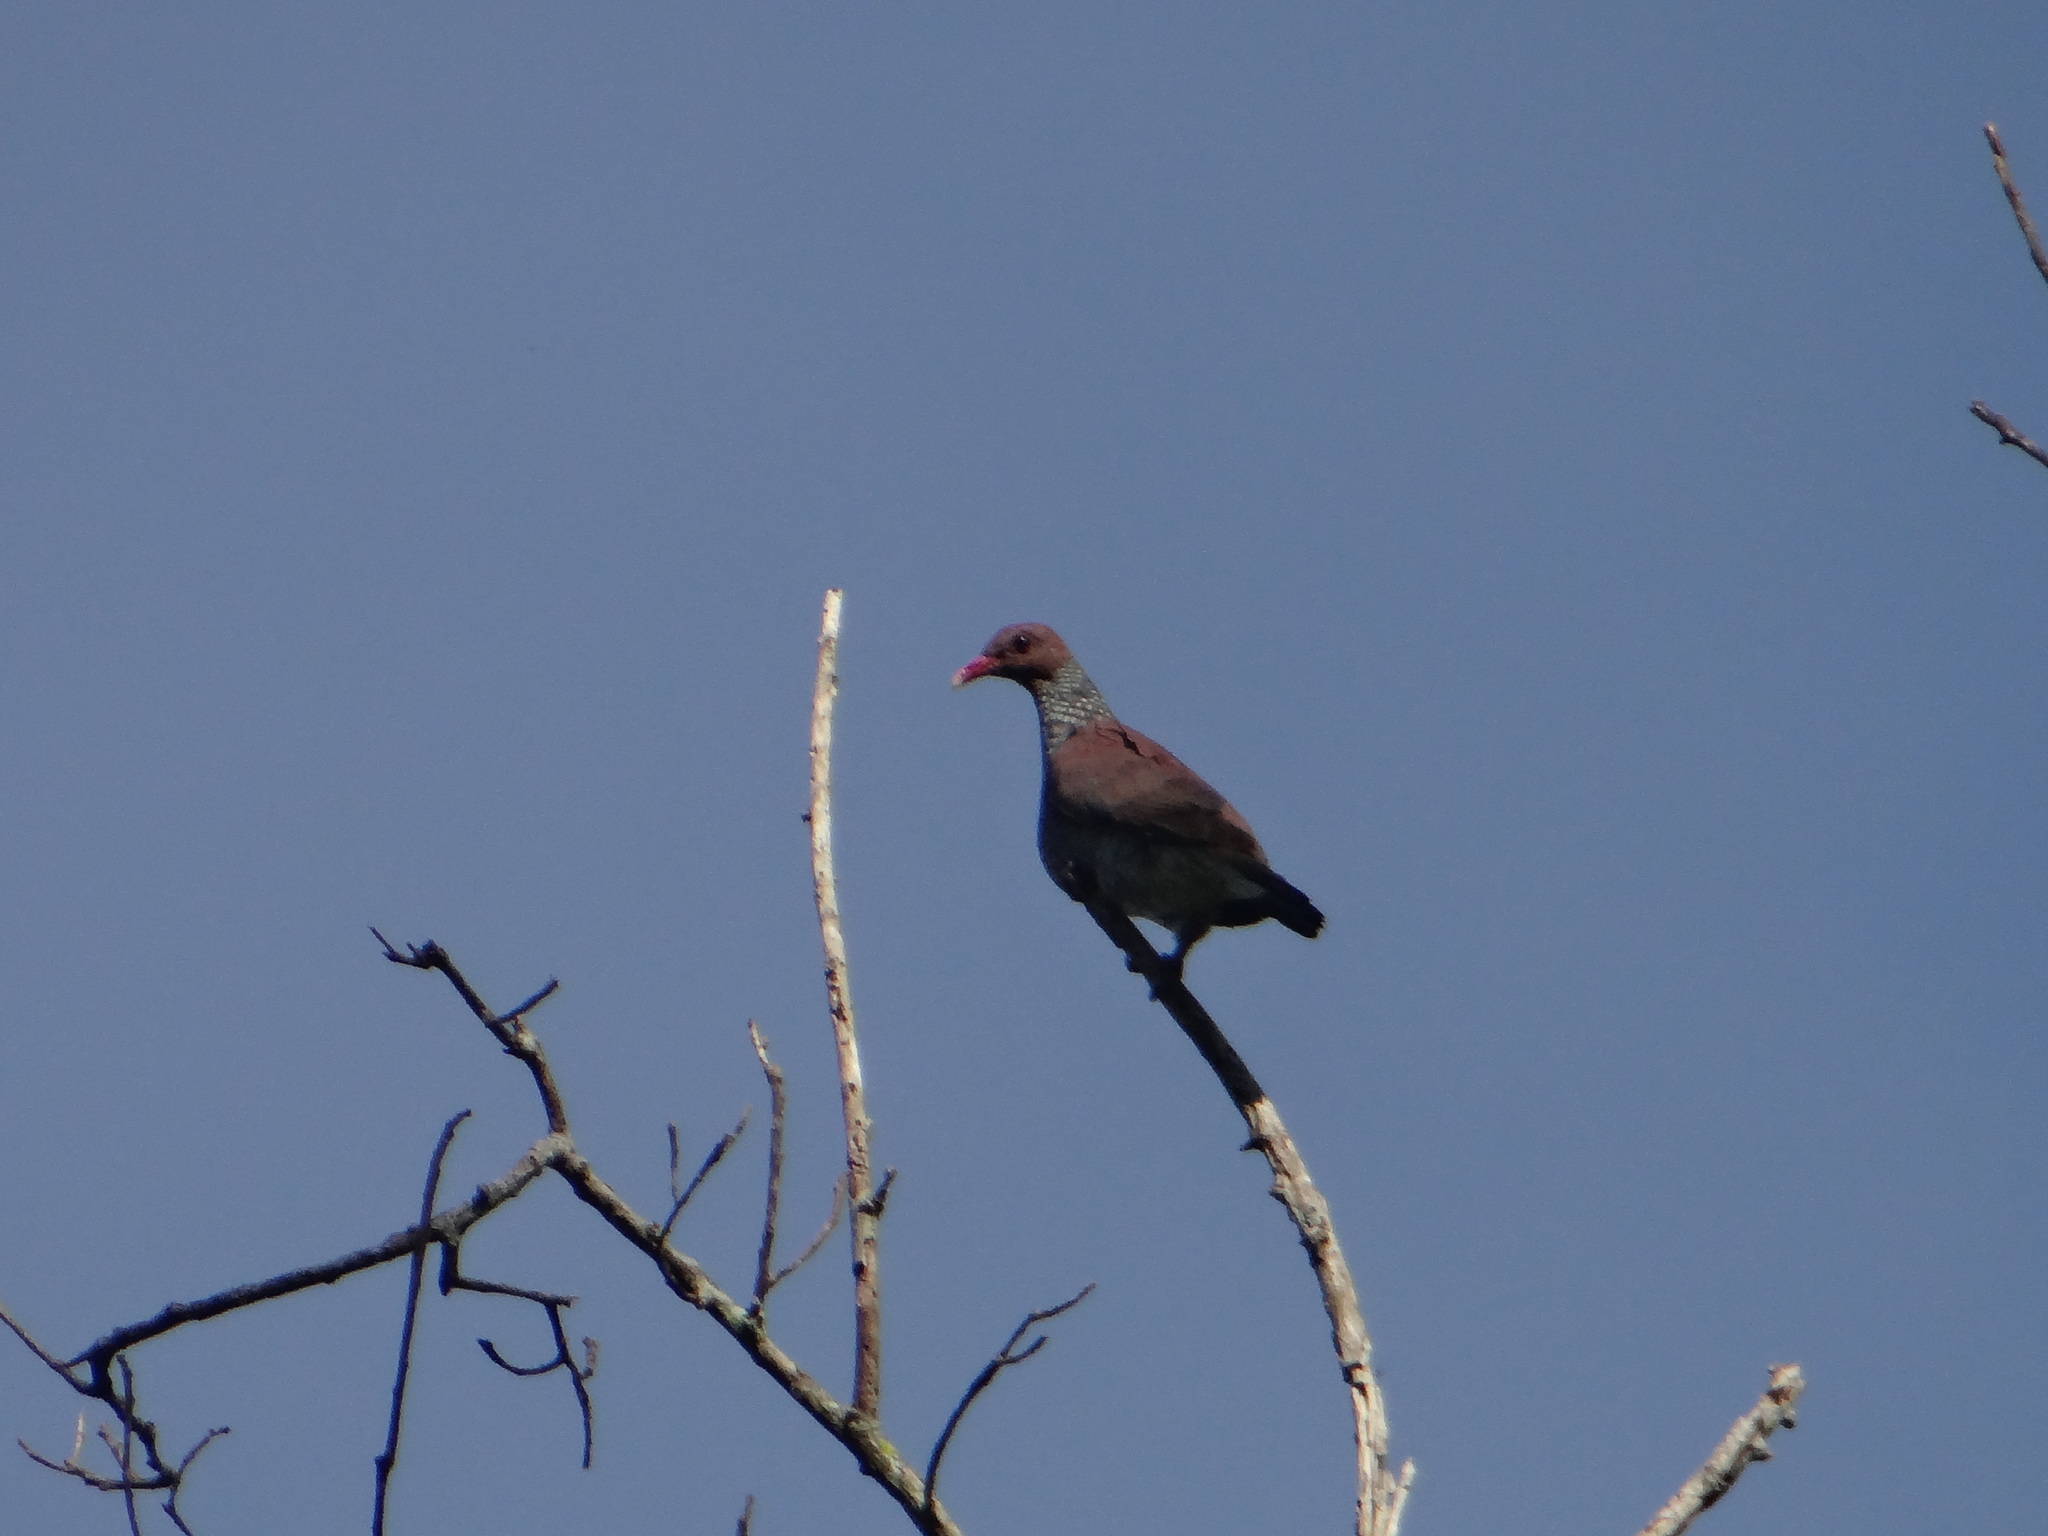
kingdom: Animalia
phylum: Chordata
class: Aves
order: Columbiformes
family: Columbidae
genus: Patagioenas
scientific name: Patagioenas speciosa
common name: Scaled pigeon
